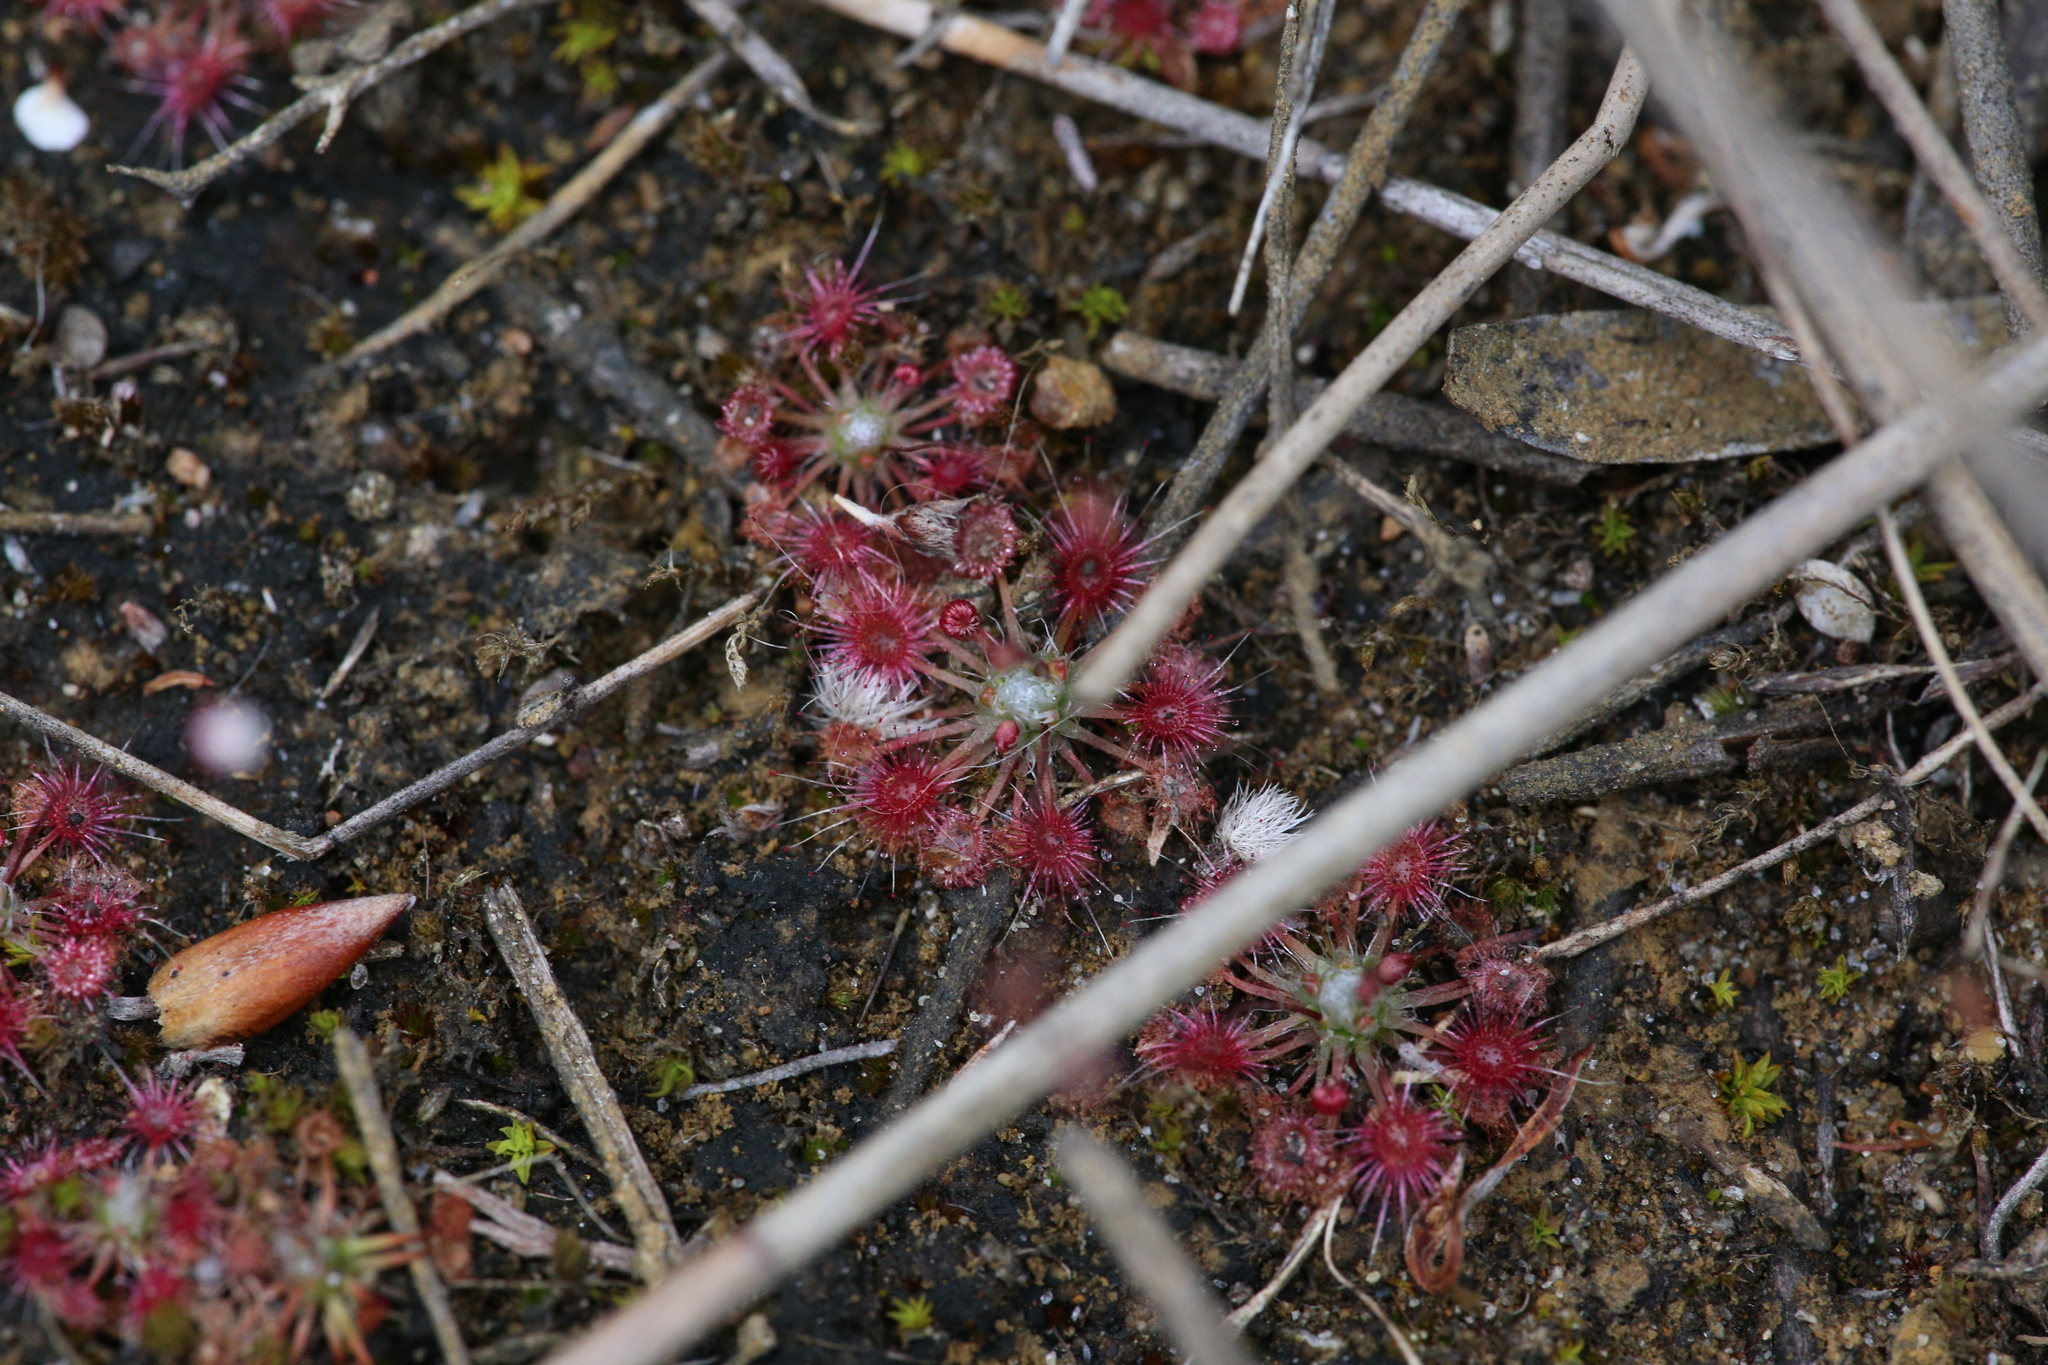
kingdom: Plantae
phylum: Tracheophyta
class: Magnoliopsida
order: Caryophyllales
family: Droseraceae
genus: Drosera
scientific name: Drosera occidentalis
